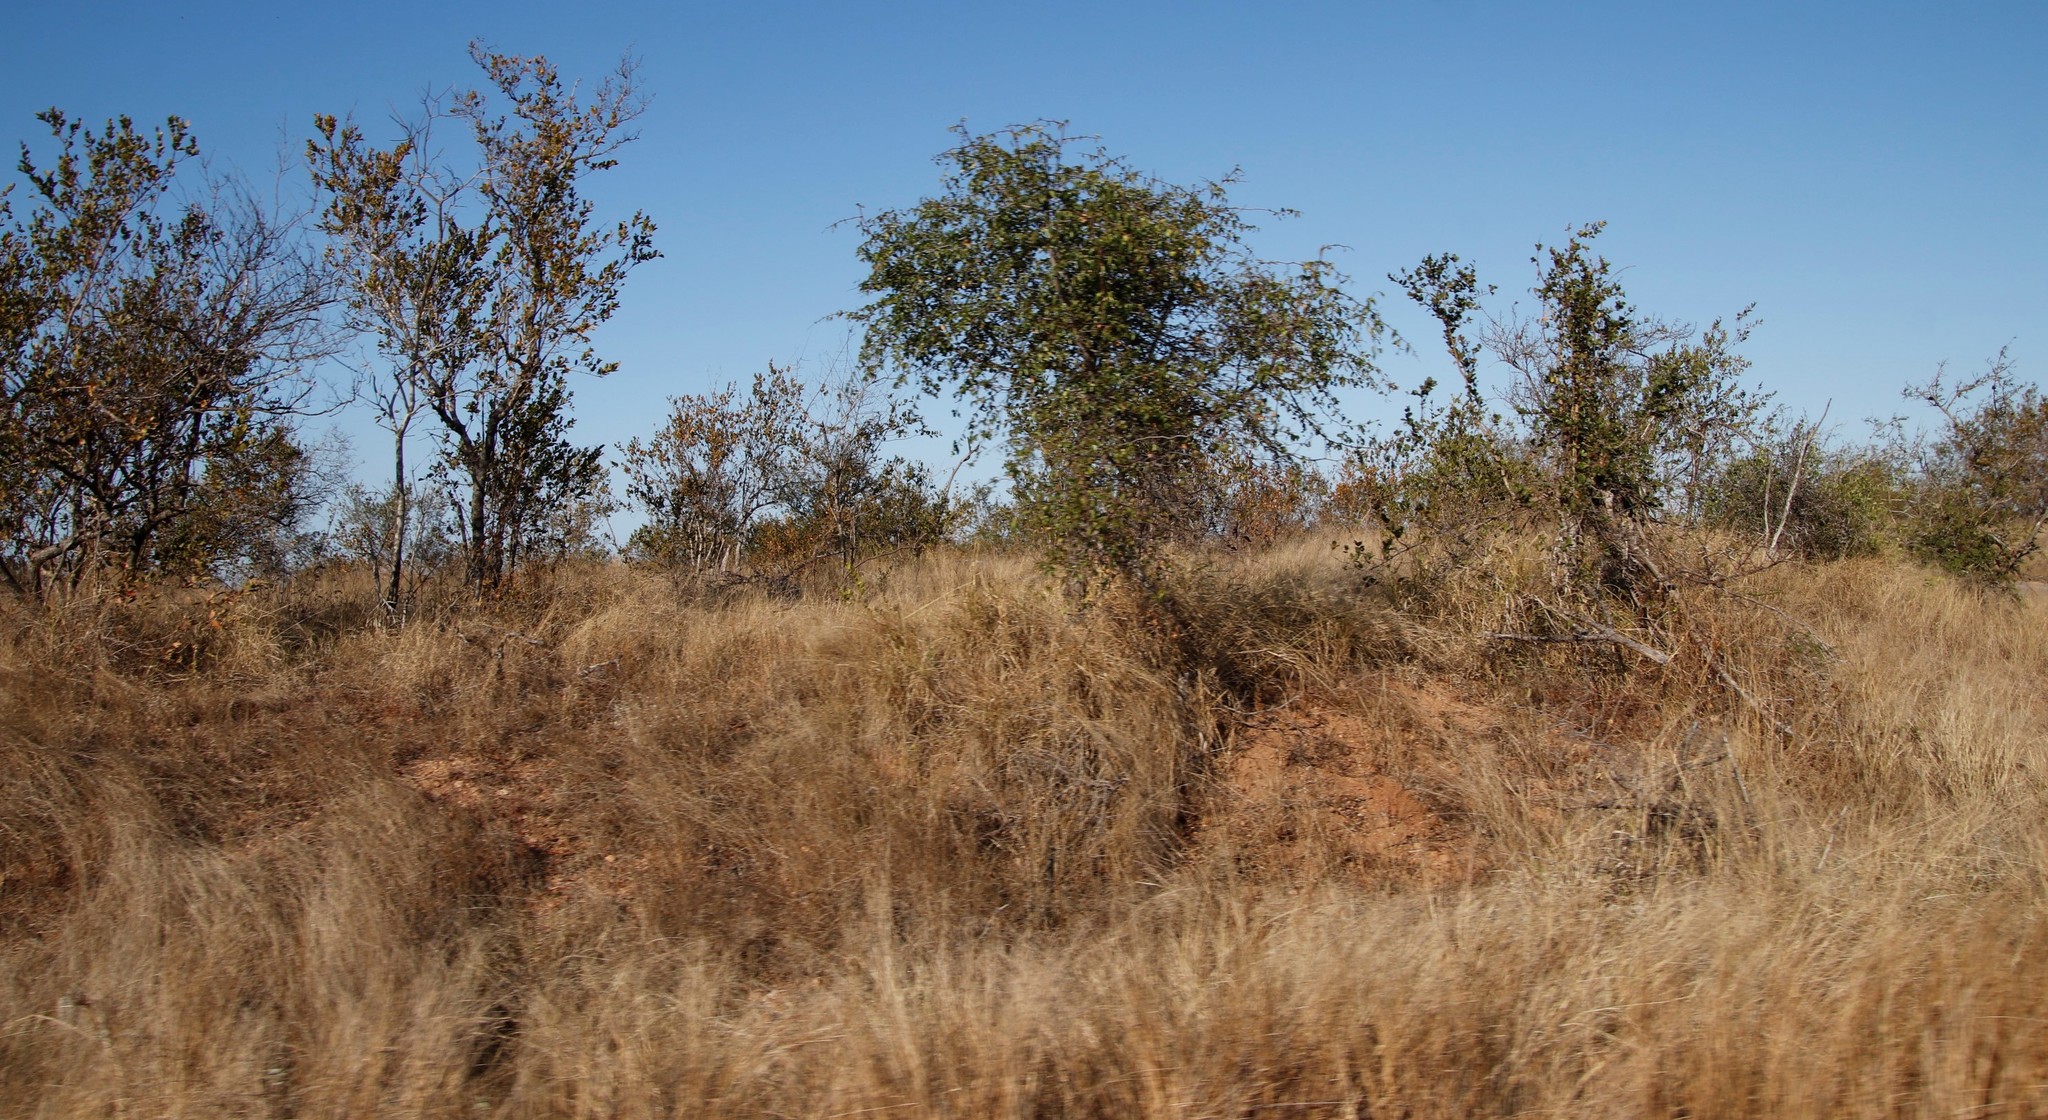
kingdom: Plantae
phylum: Tracheophyta
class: Magnoliopsida
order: Rosales
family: Rhamnaceae
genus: Ziziphus
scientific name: Ziziphus mucronata
